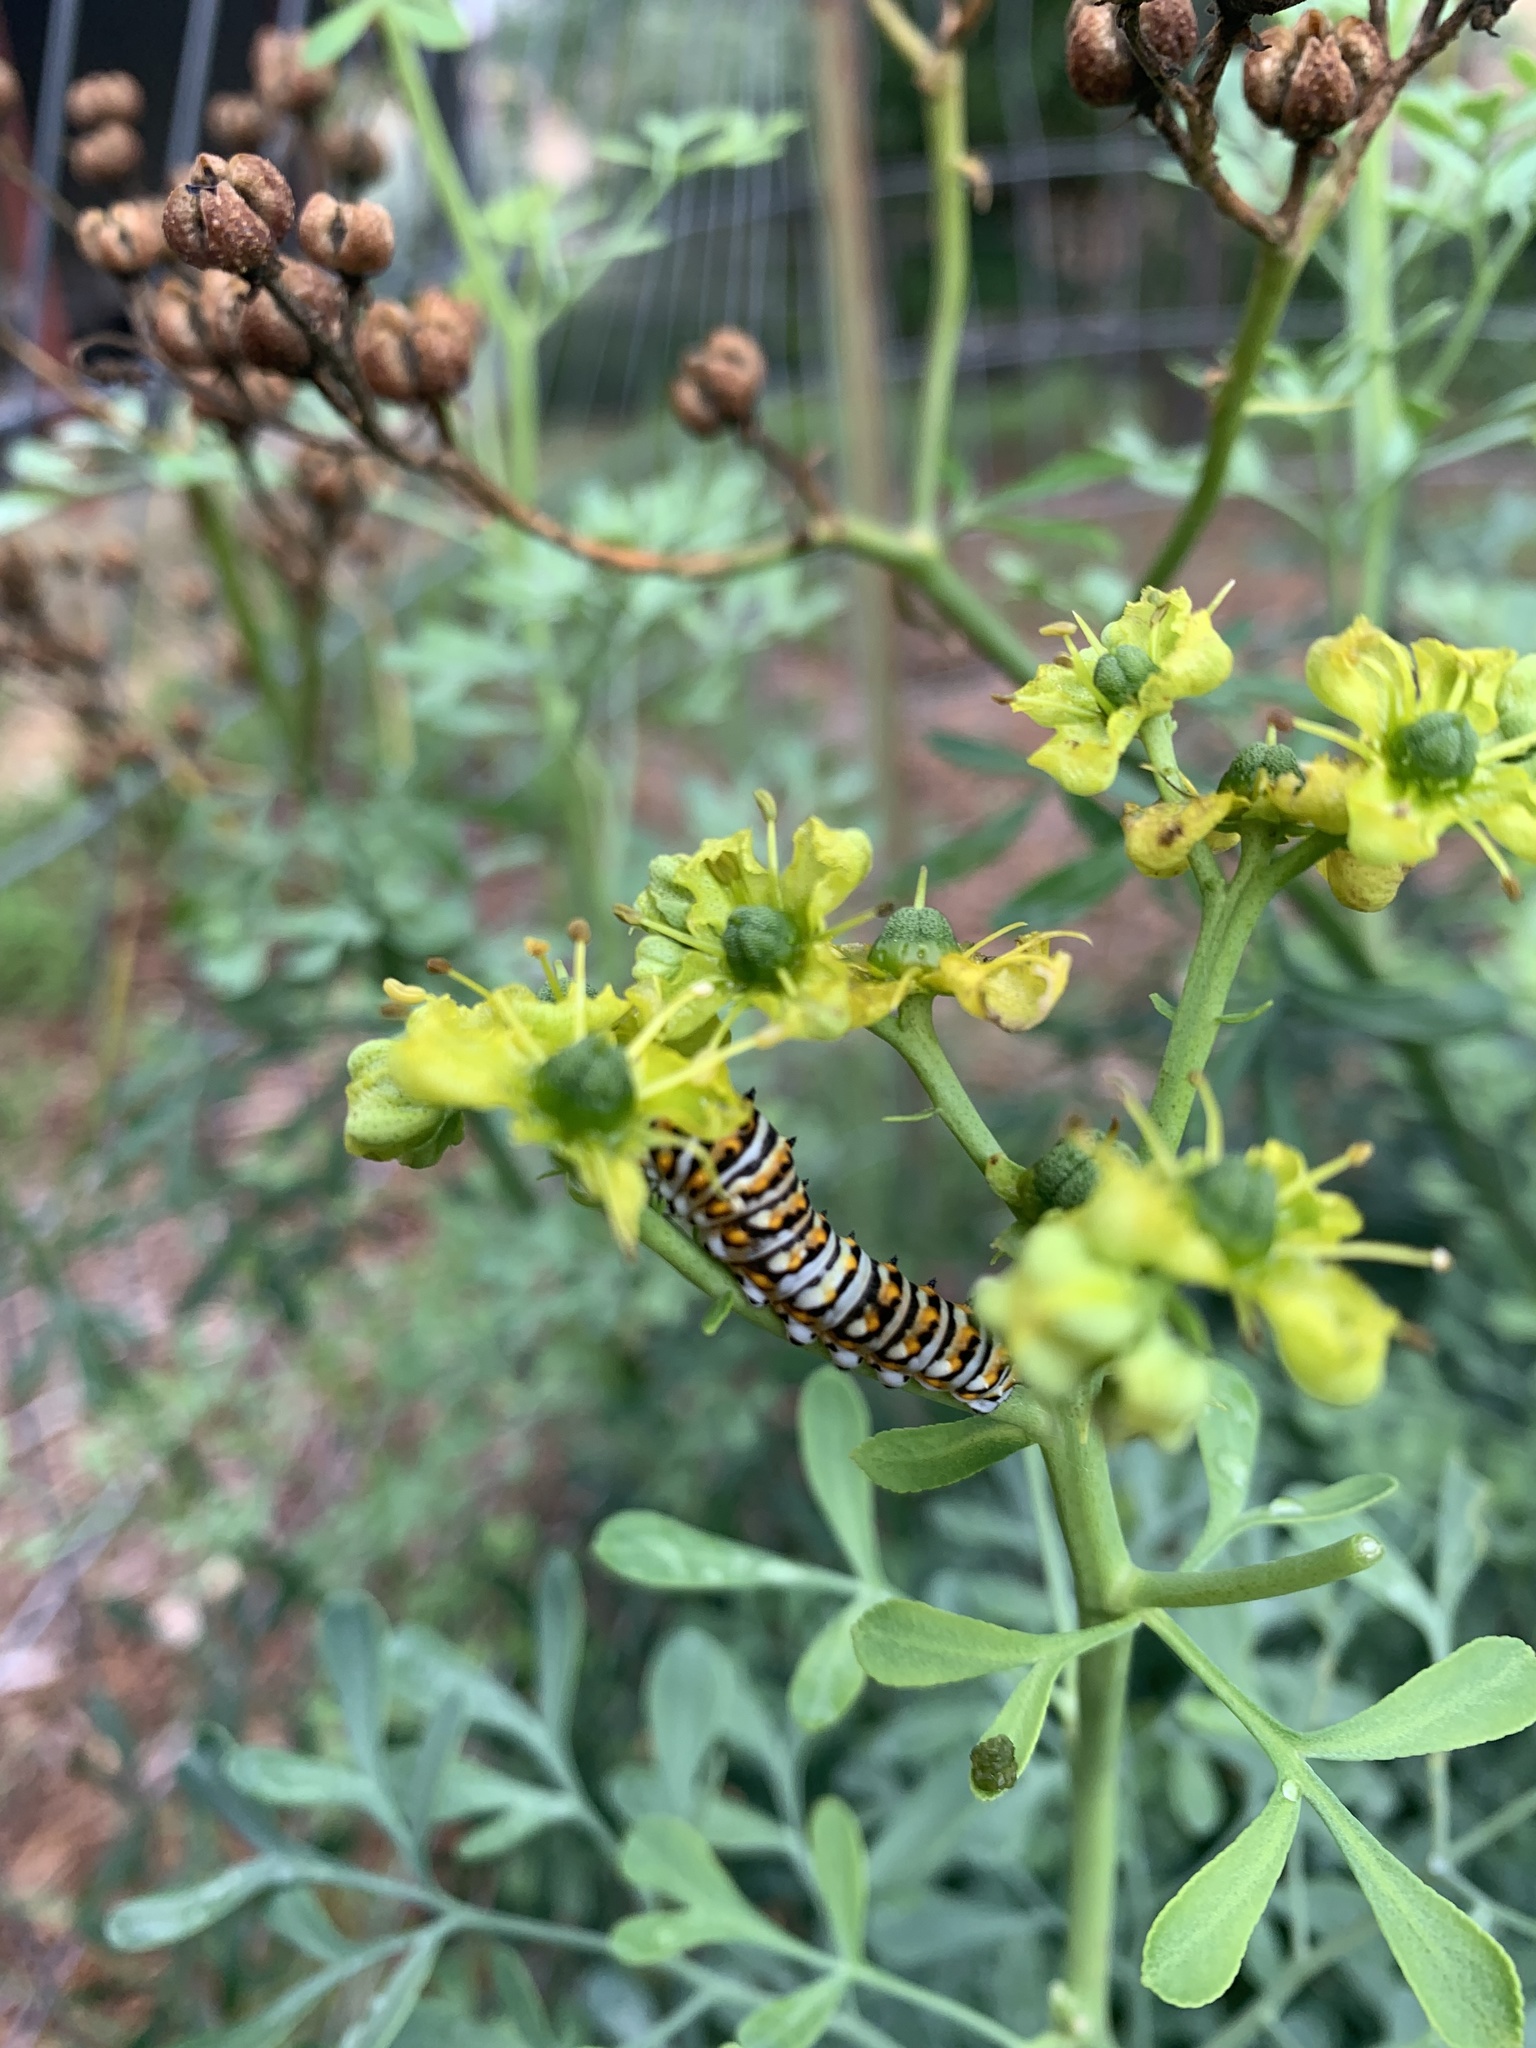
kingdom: Animalia
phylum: Arthropoda
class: Insecta
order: Lepidoptera
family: Papilionidae
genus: Papilio
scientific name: Papilio polyxenes
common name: Black swallowtail
